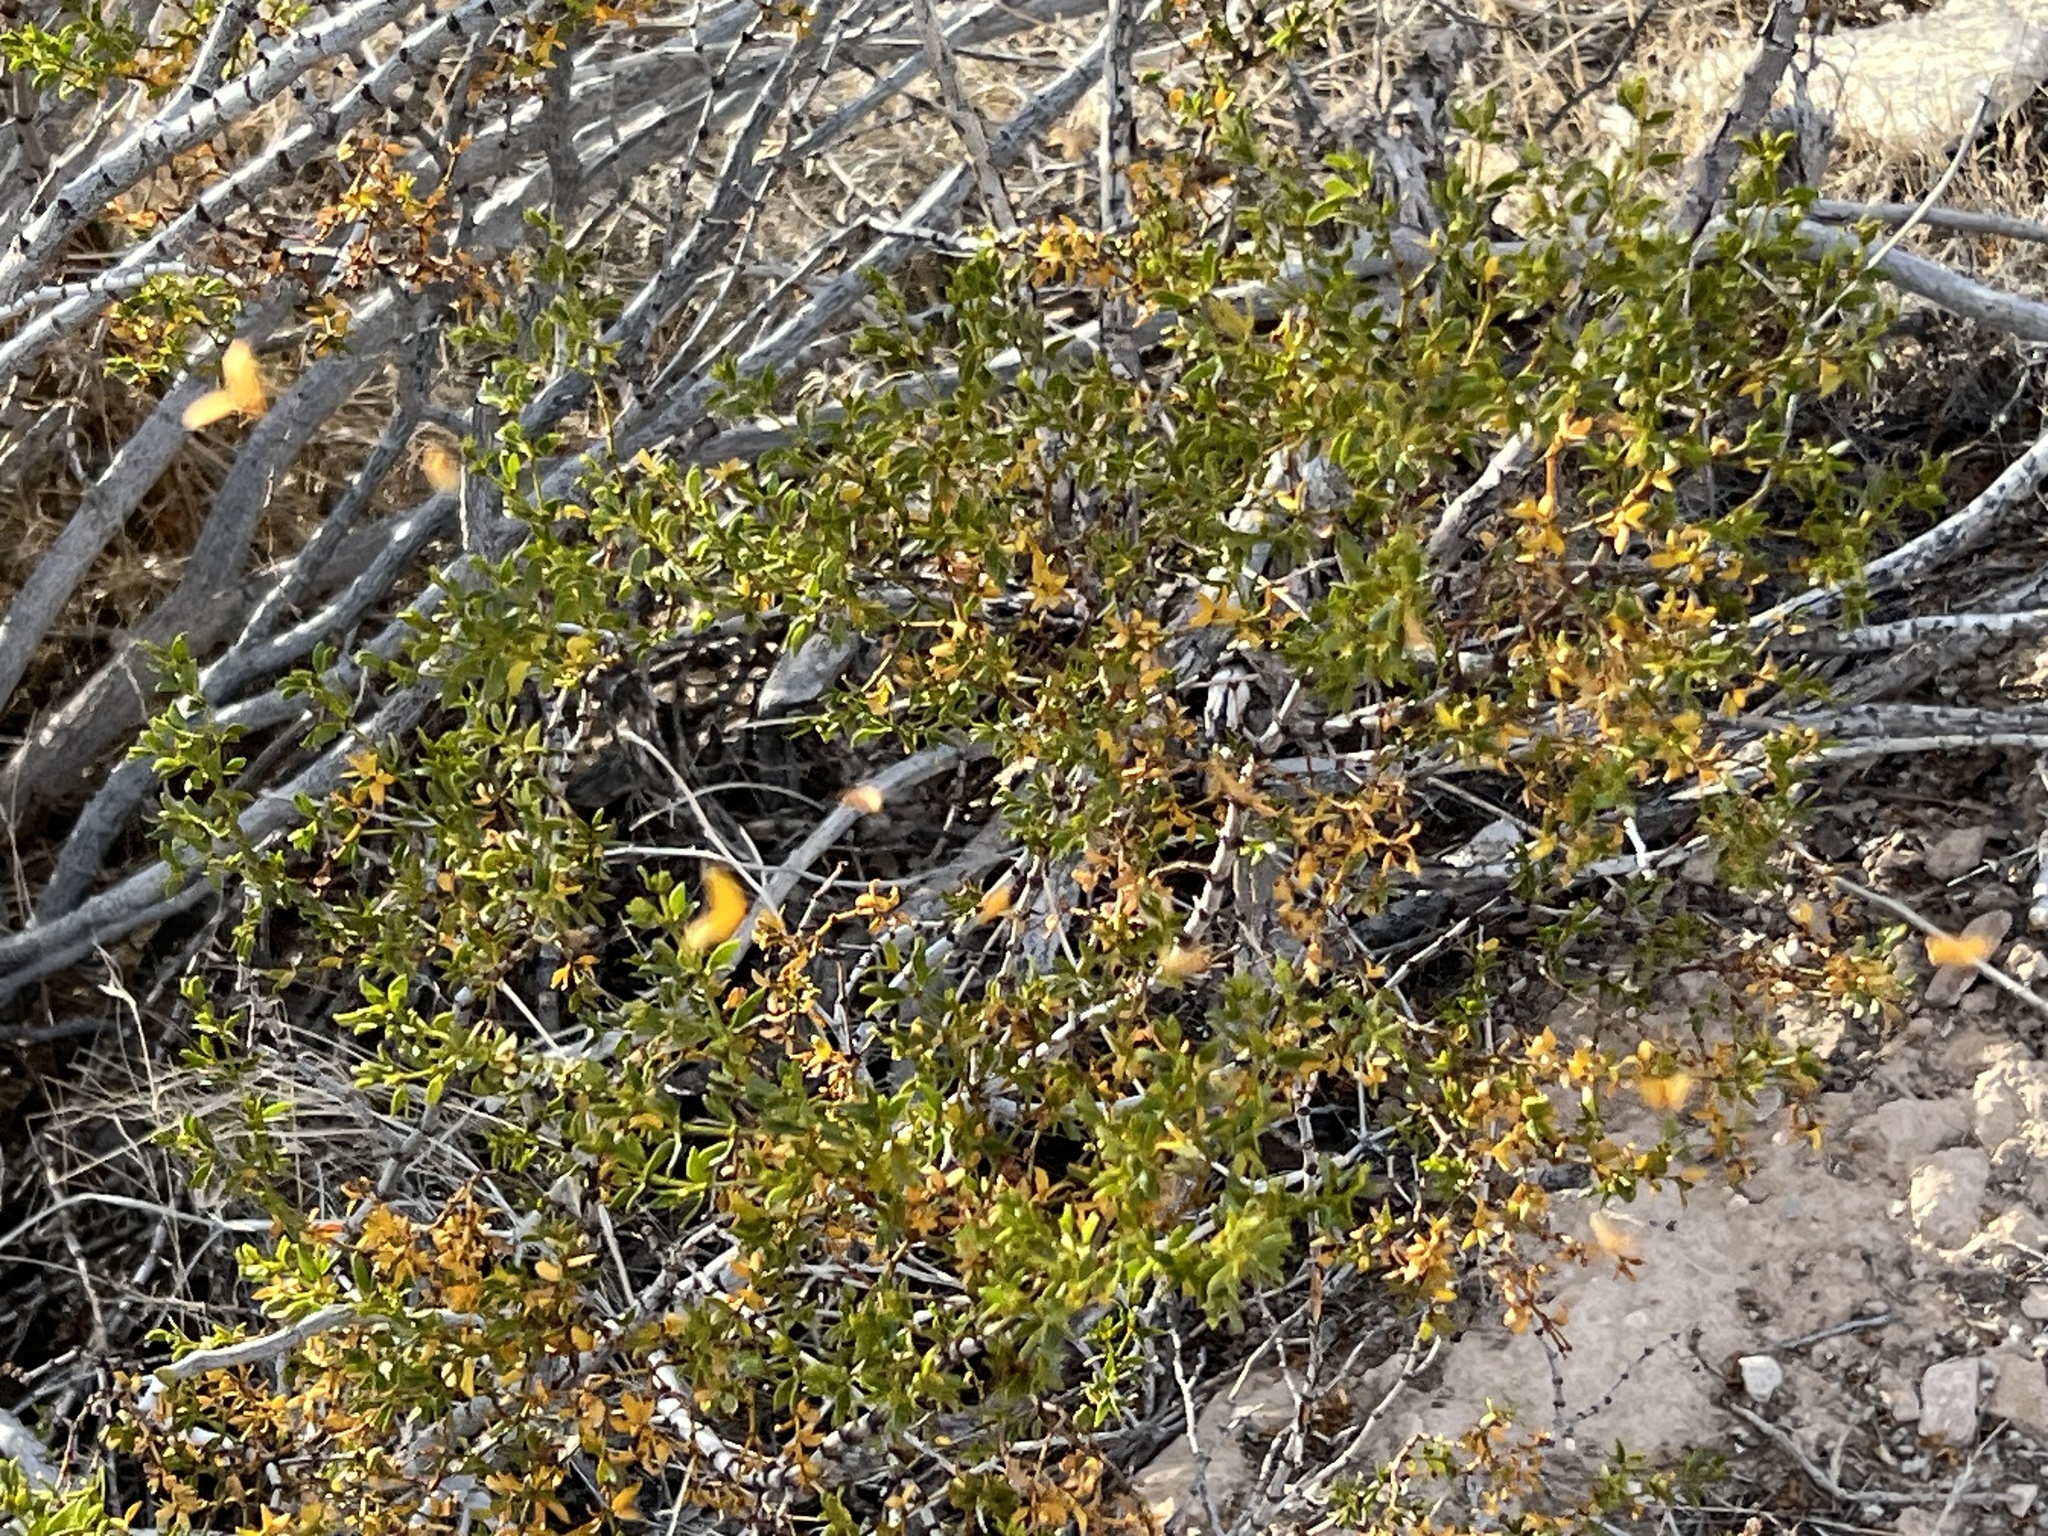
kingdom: Plantae
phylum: Tracheophyta
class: Magnoliopsida
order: Zygophyllales
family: Zygophyllaceae
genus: Larrea
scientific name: Larrea tridentata
